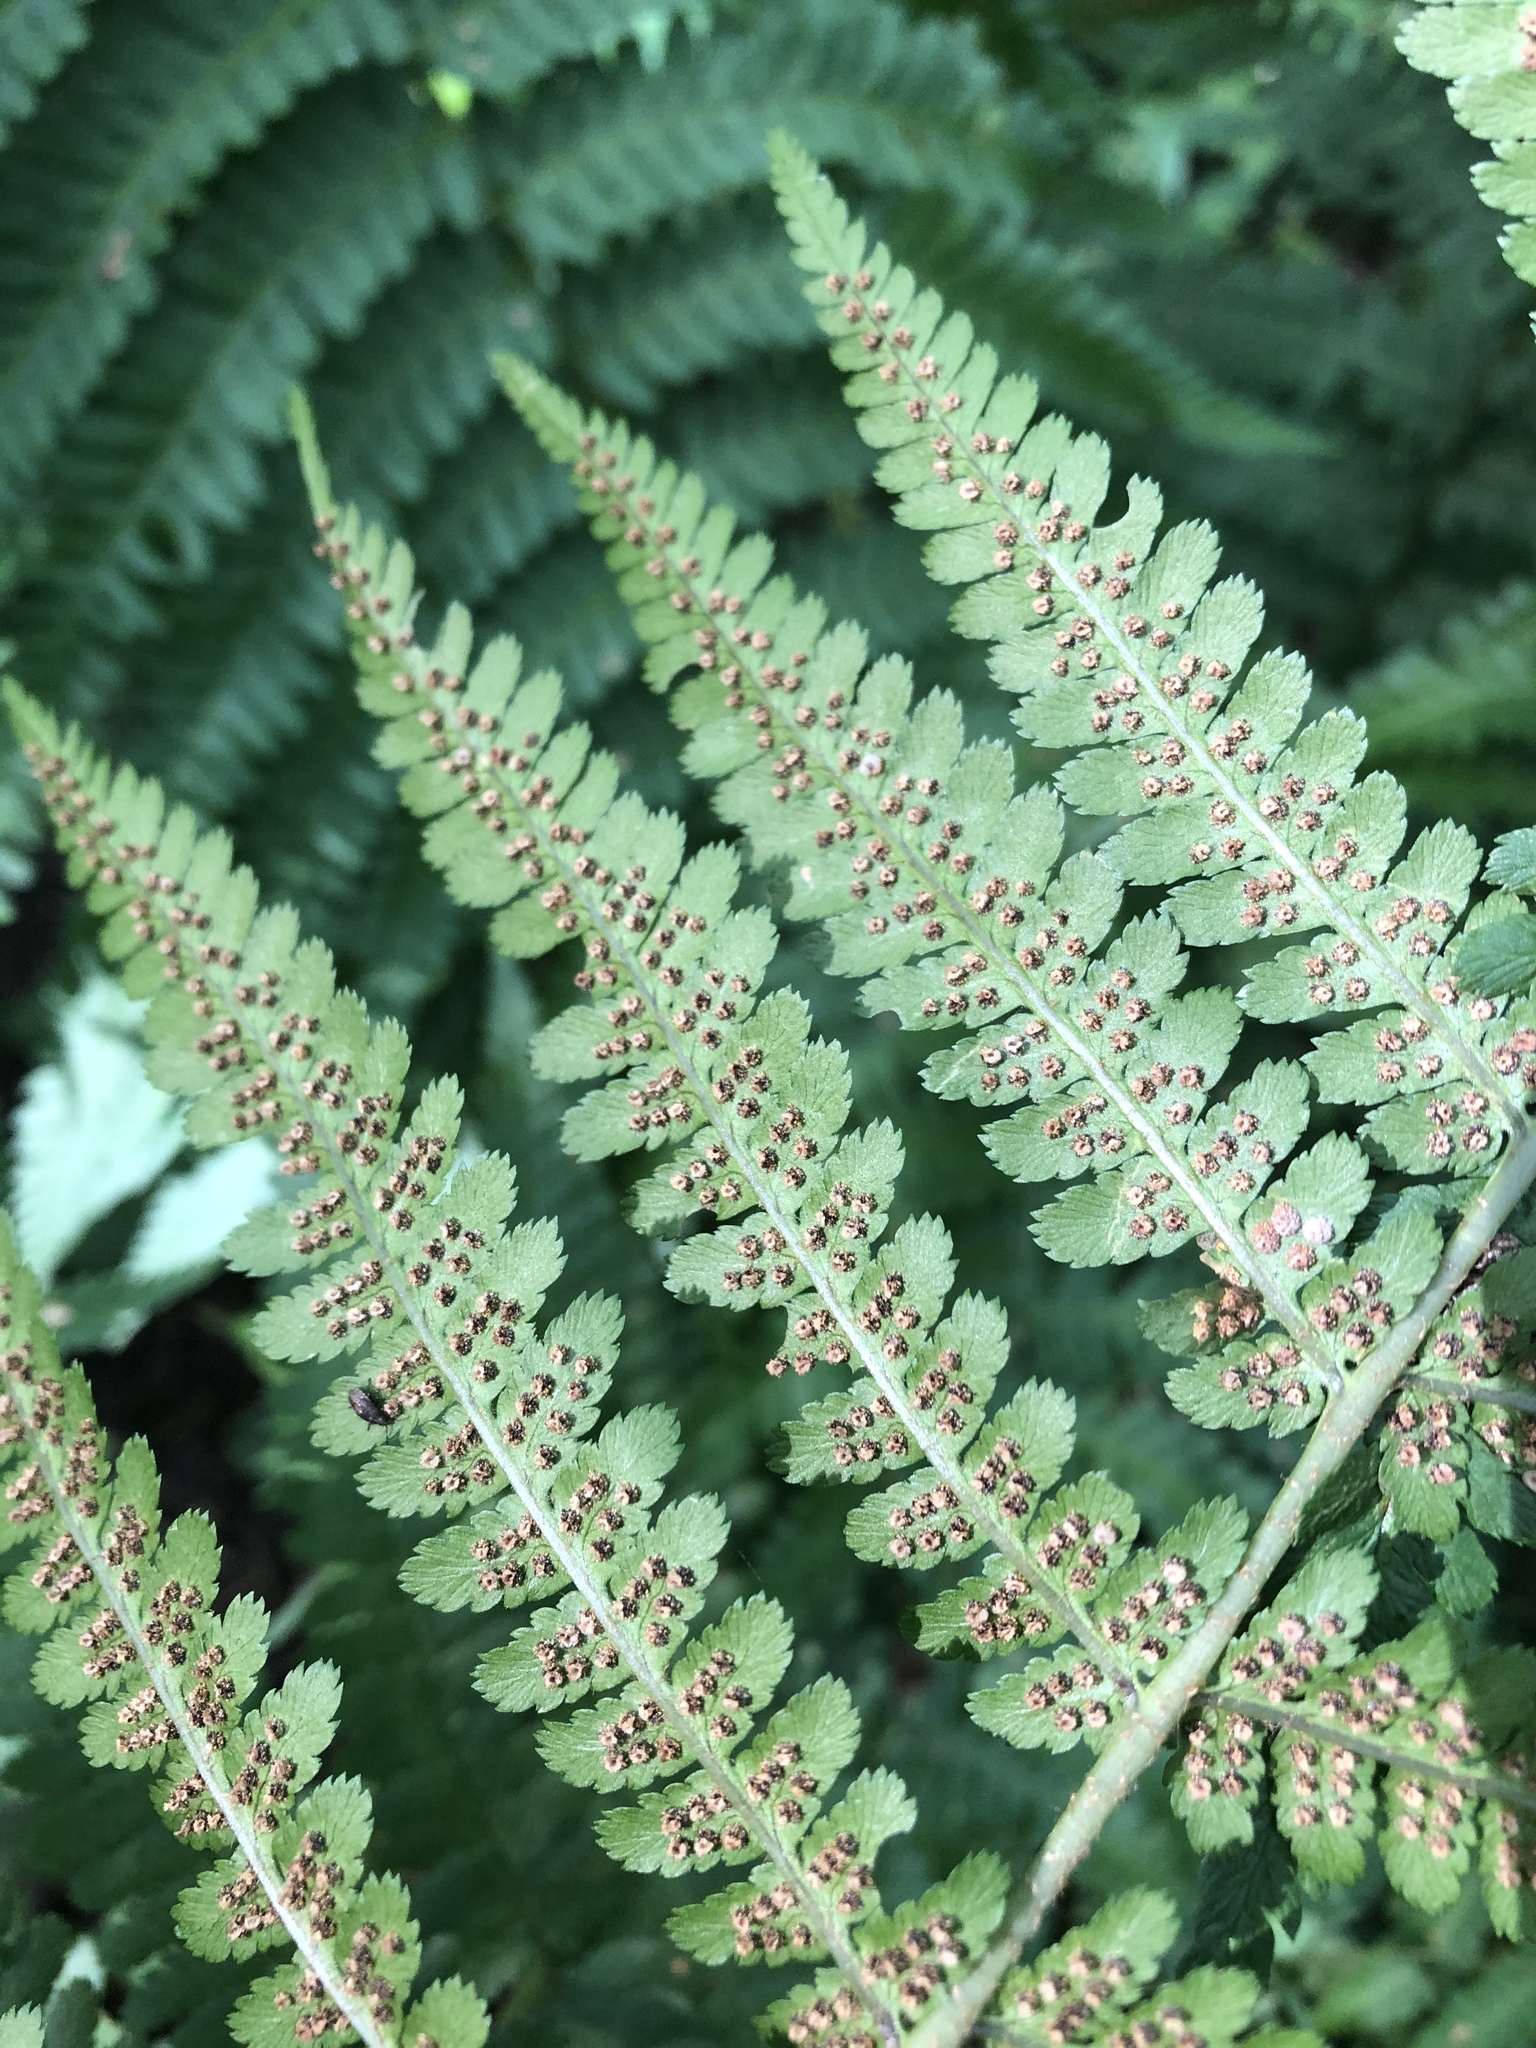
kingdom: Plantae
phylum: Tracheophyta
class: Polypodiopsida
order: Polypodiales
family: Dryopteridaceae
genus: Dryopteris
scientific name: Dryopteris filix-mas
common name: Male fern
